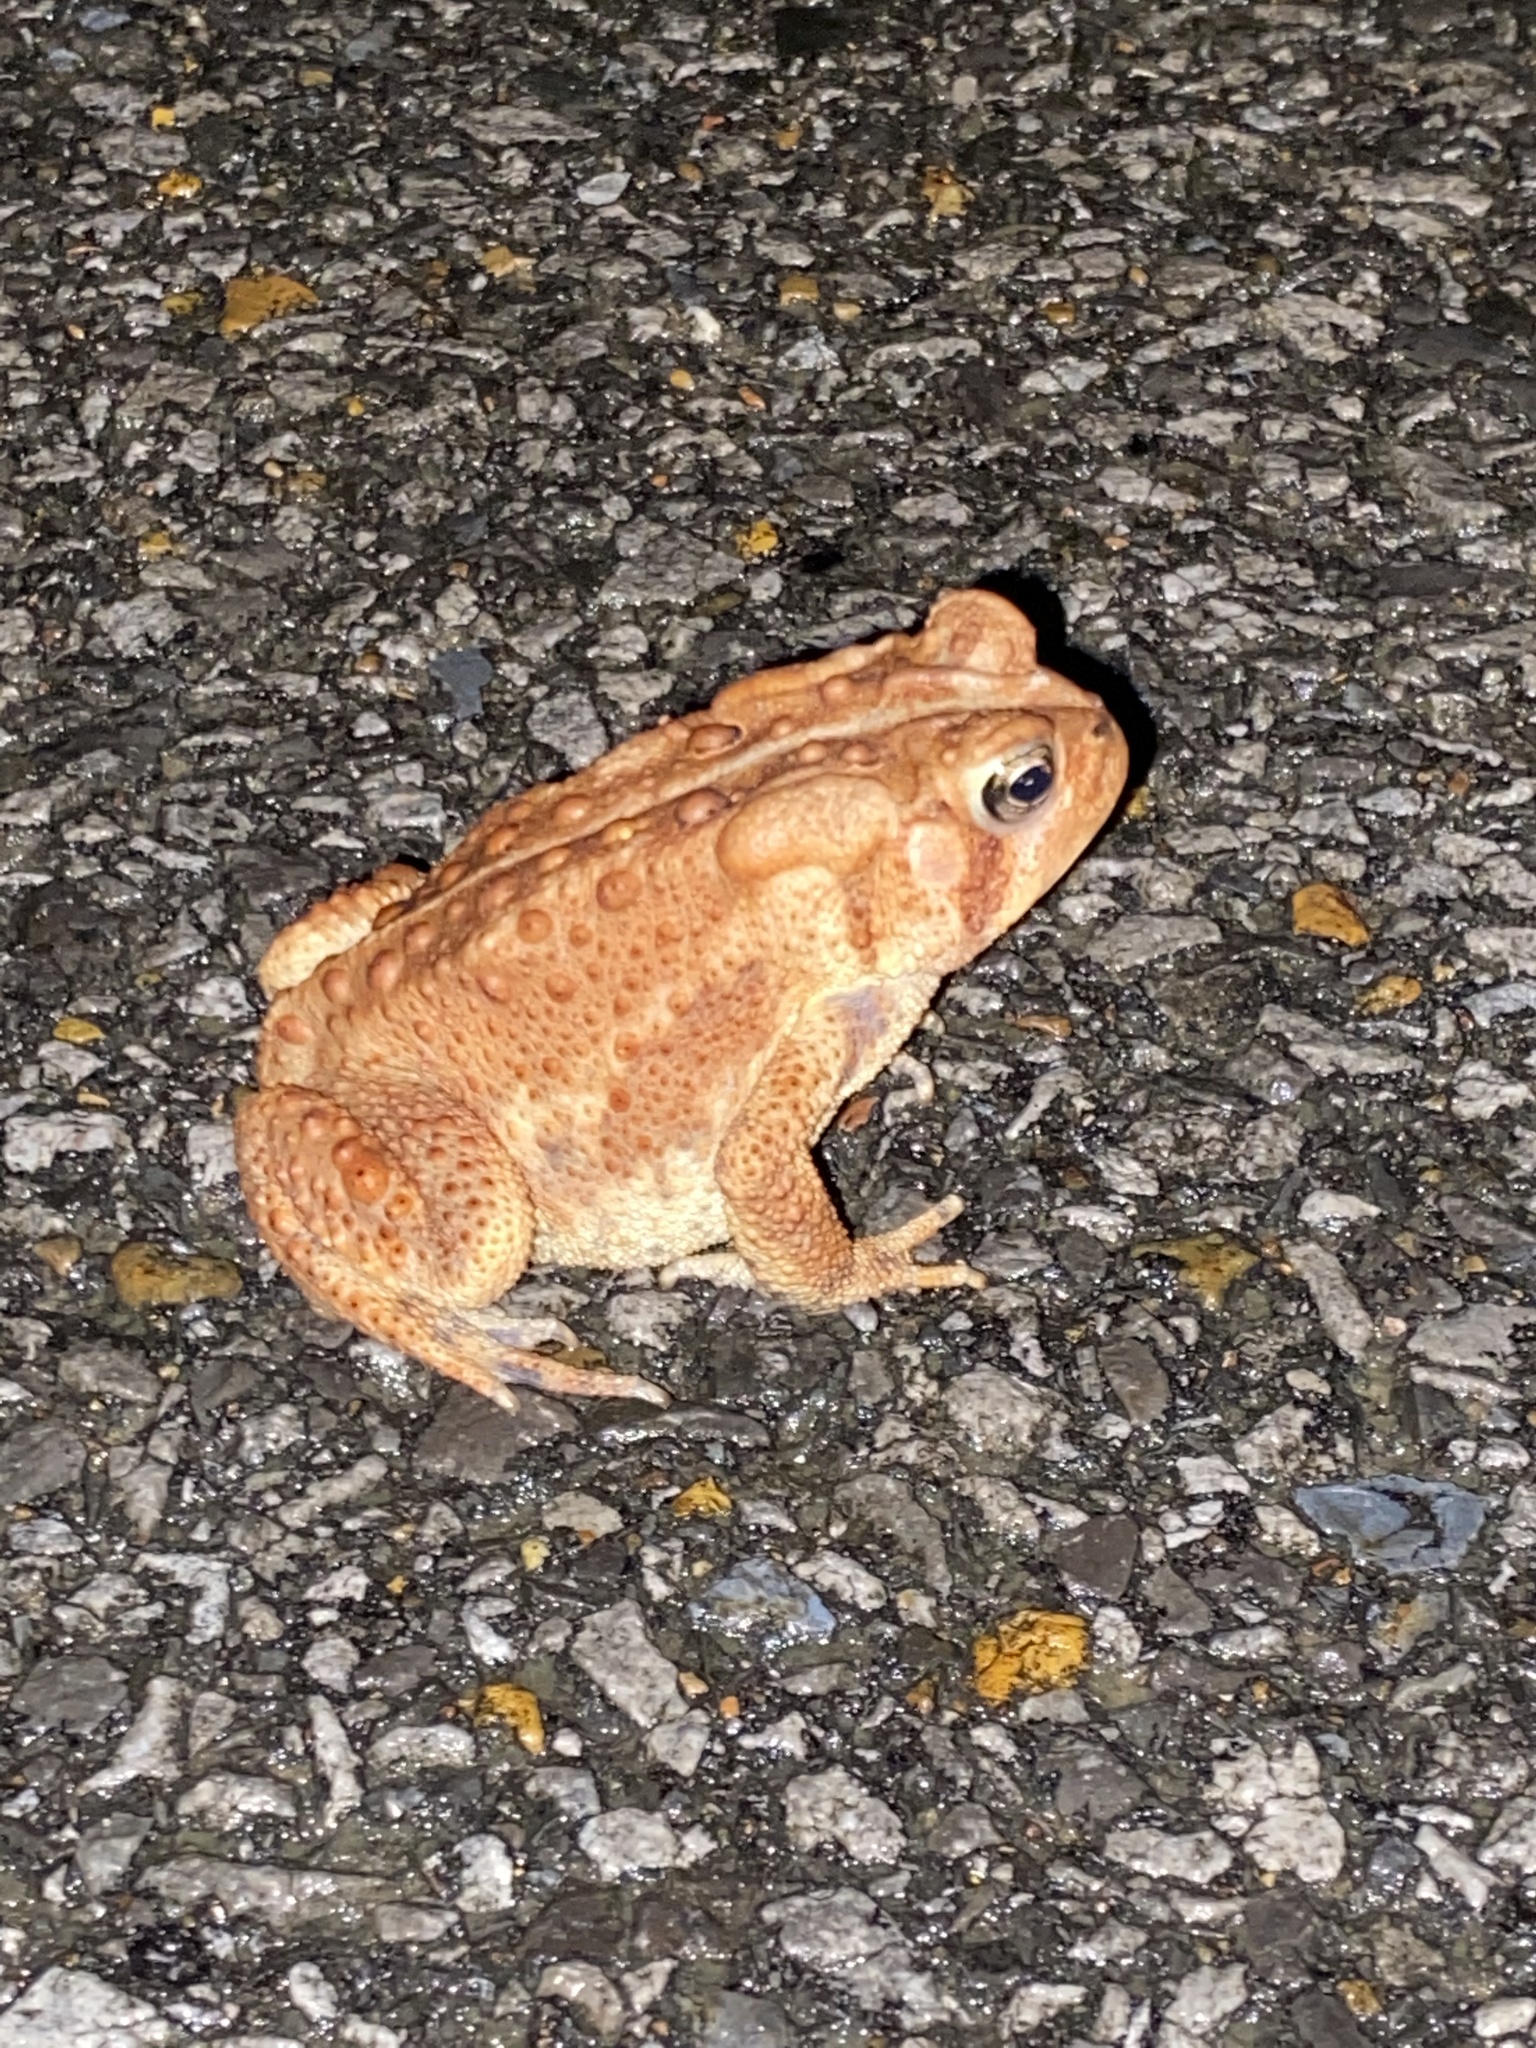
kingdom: Animalia
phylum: Chordata
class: Amphibia
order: Anura
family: Bufonidae
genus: Anaxyrus
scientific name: Anaxyrus americanus
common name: American toad
